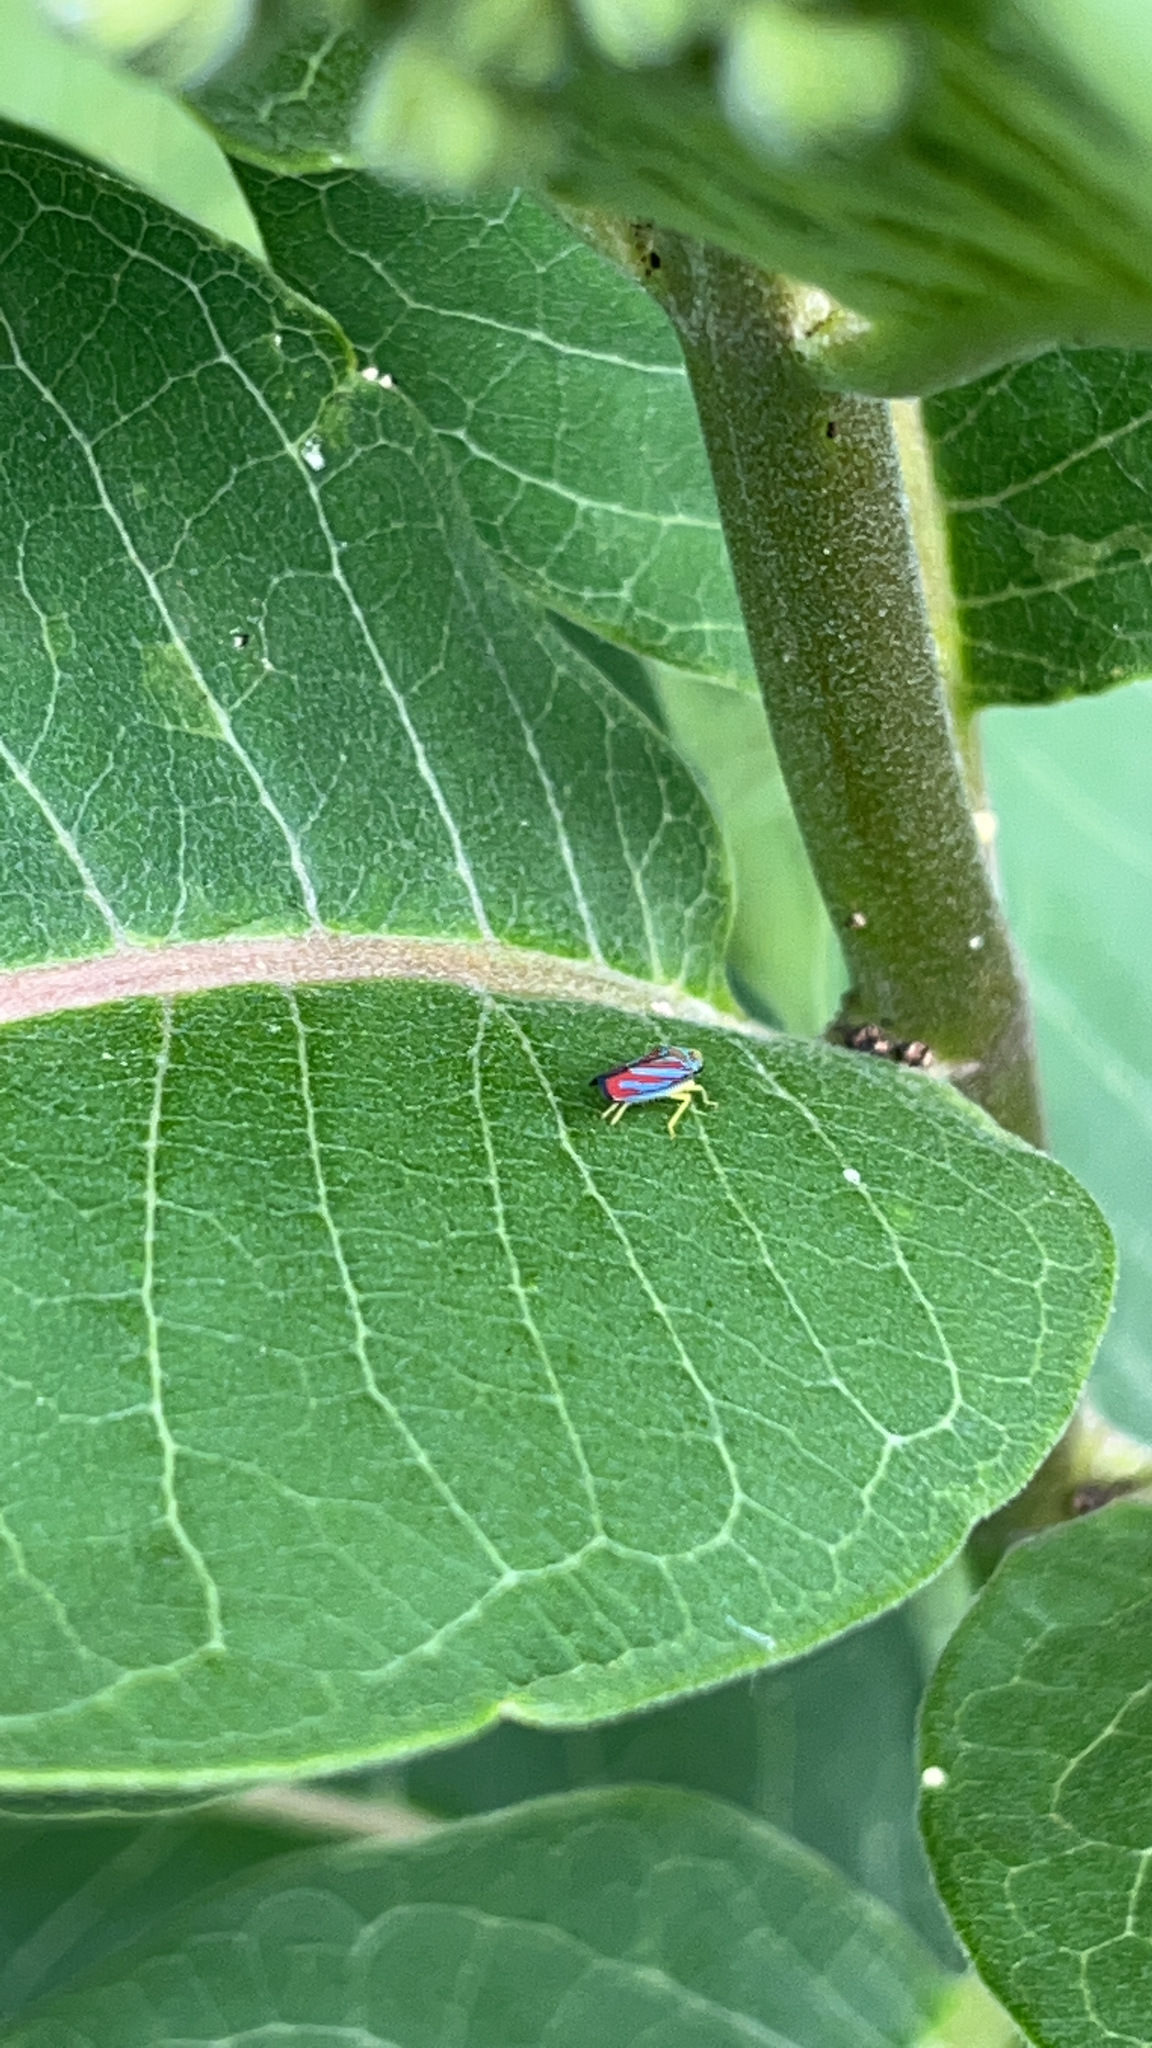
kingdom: Animalia
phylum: Arthropoda
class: Insecta
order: Hemiptera
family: Cicadellidae
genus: Graphocephala
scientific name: Graphocephala coccinea
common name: Candy-striped leafhopper
